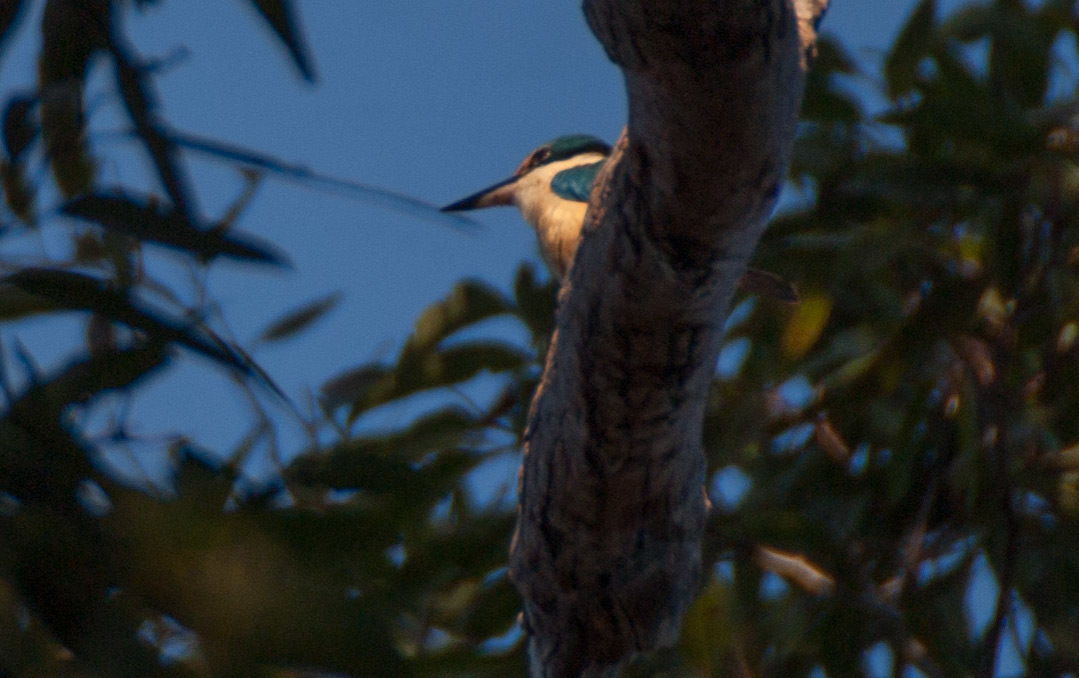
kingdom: Animalia
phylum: Chordata
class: Aves
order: Coraciiformes
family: Alcedinidae
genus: Todiramphus
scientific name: Todiramphus sanctus
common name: Sacred kingfisher
